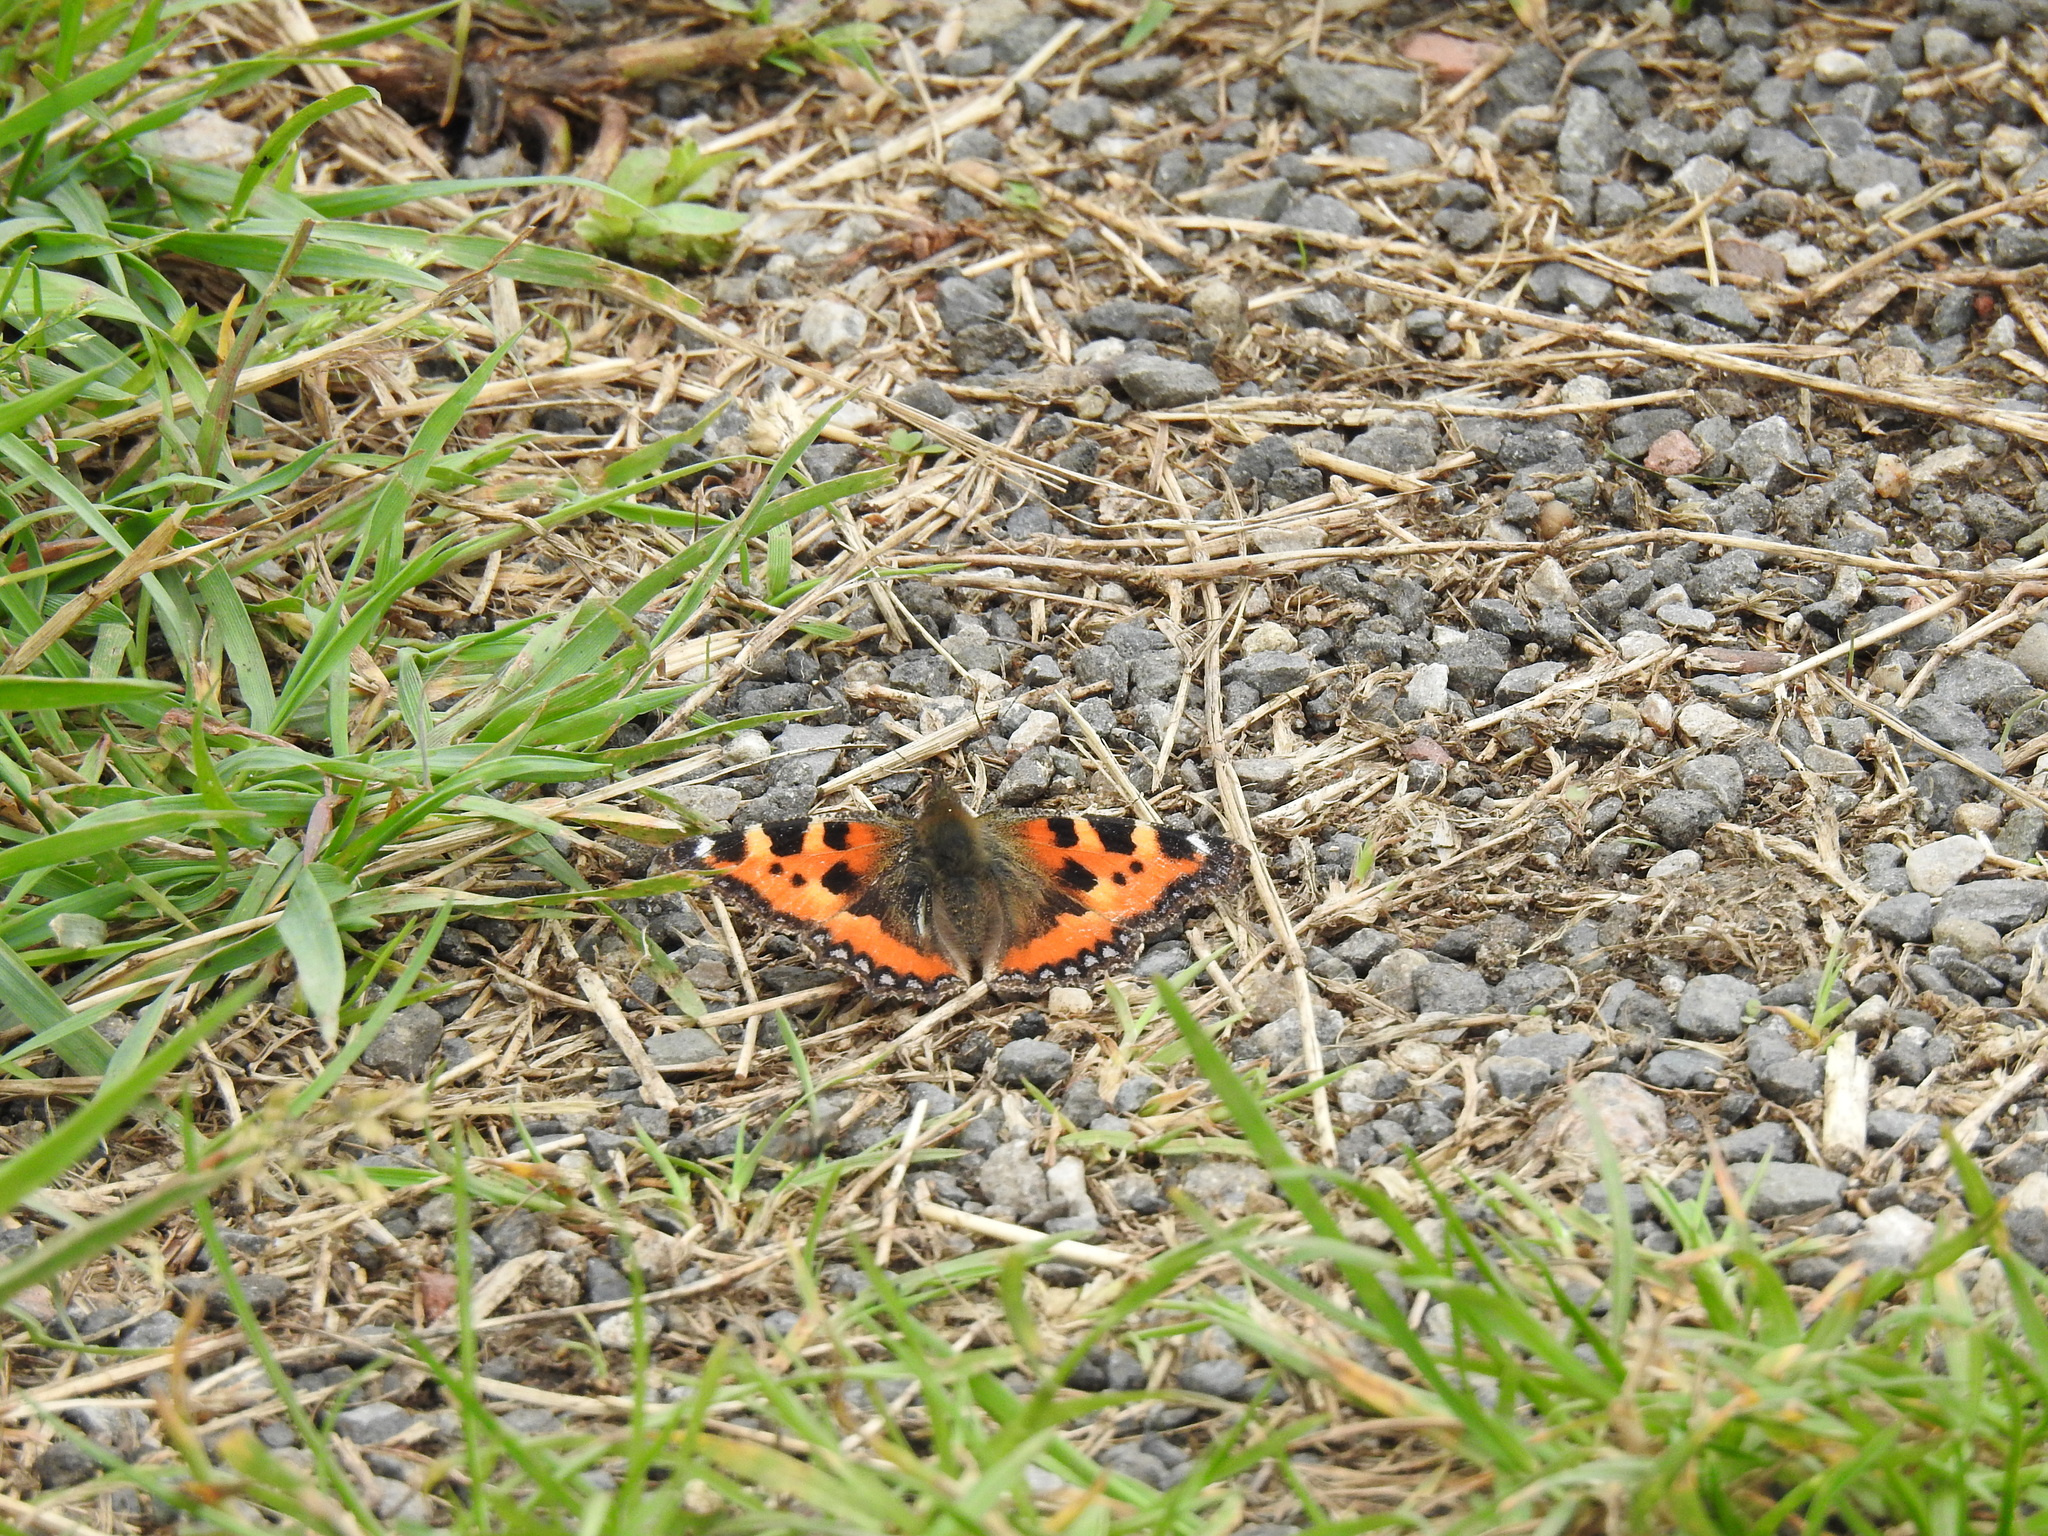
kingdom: Animalia
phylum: Arthropoda
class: Insecta
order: Lepidoptera
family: Nymphalidae
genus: Aglais
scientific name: Aglais urticae
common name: Small tortoiseshell
